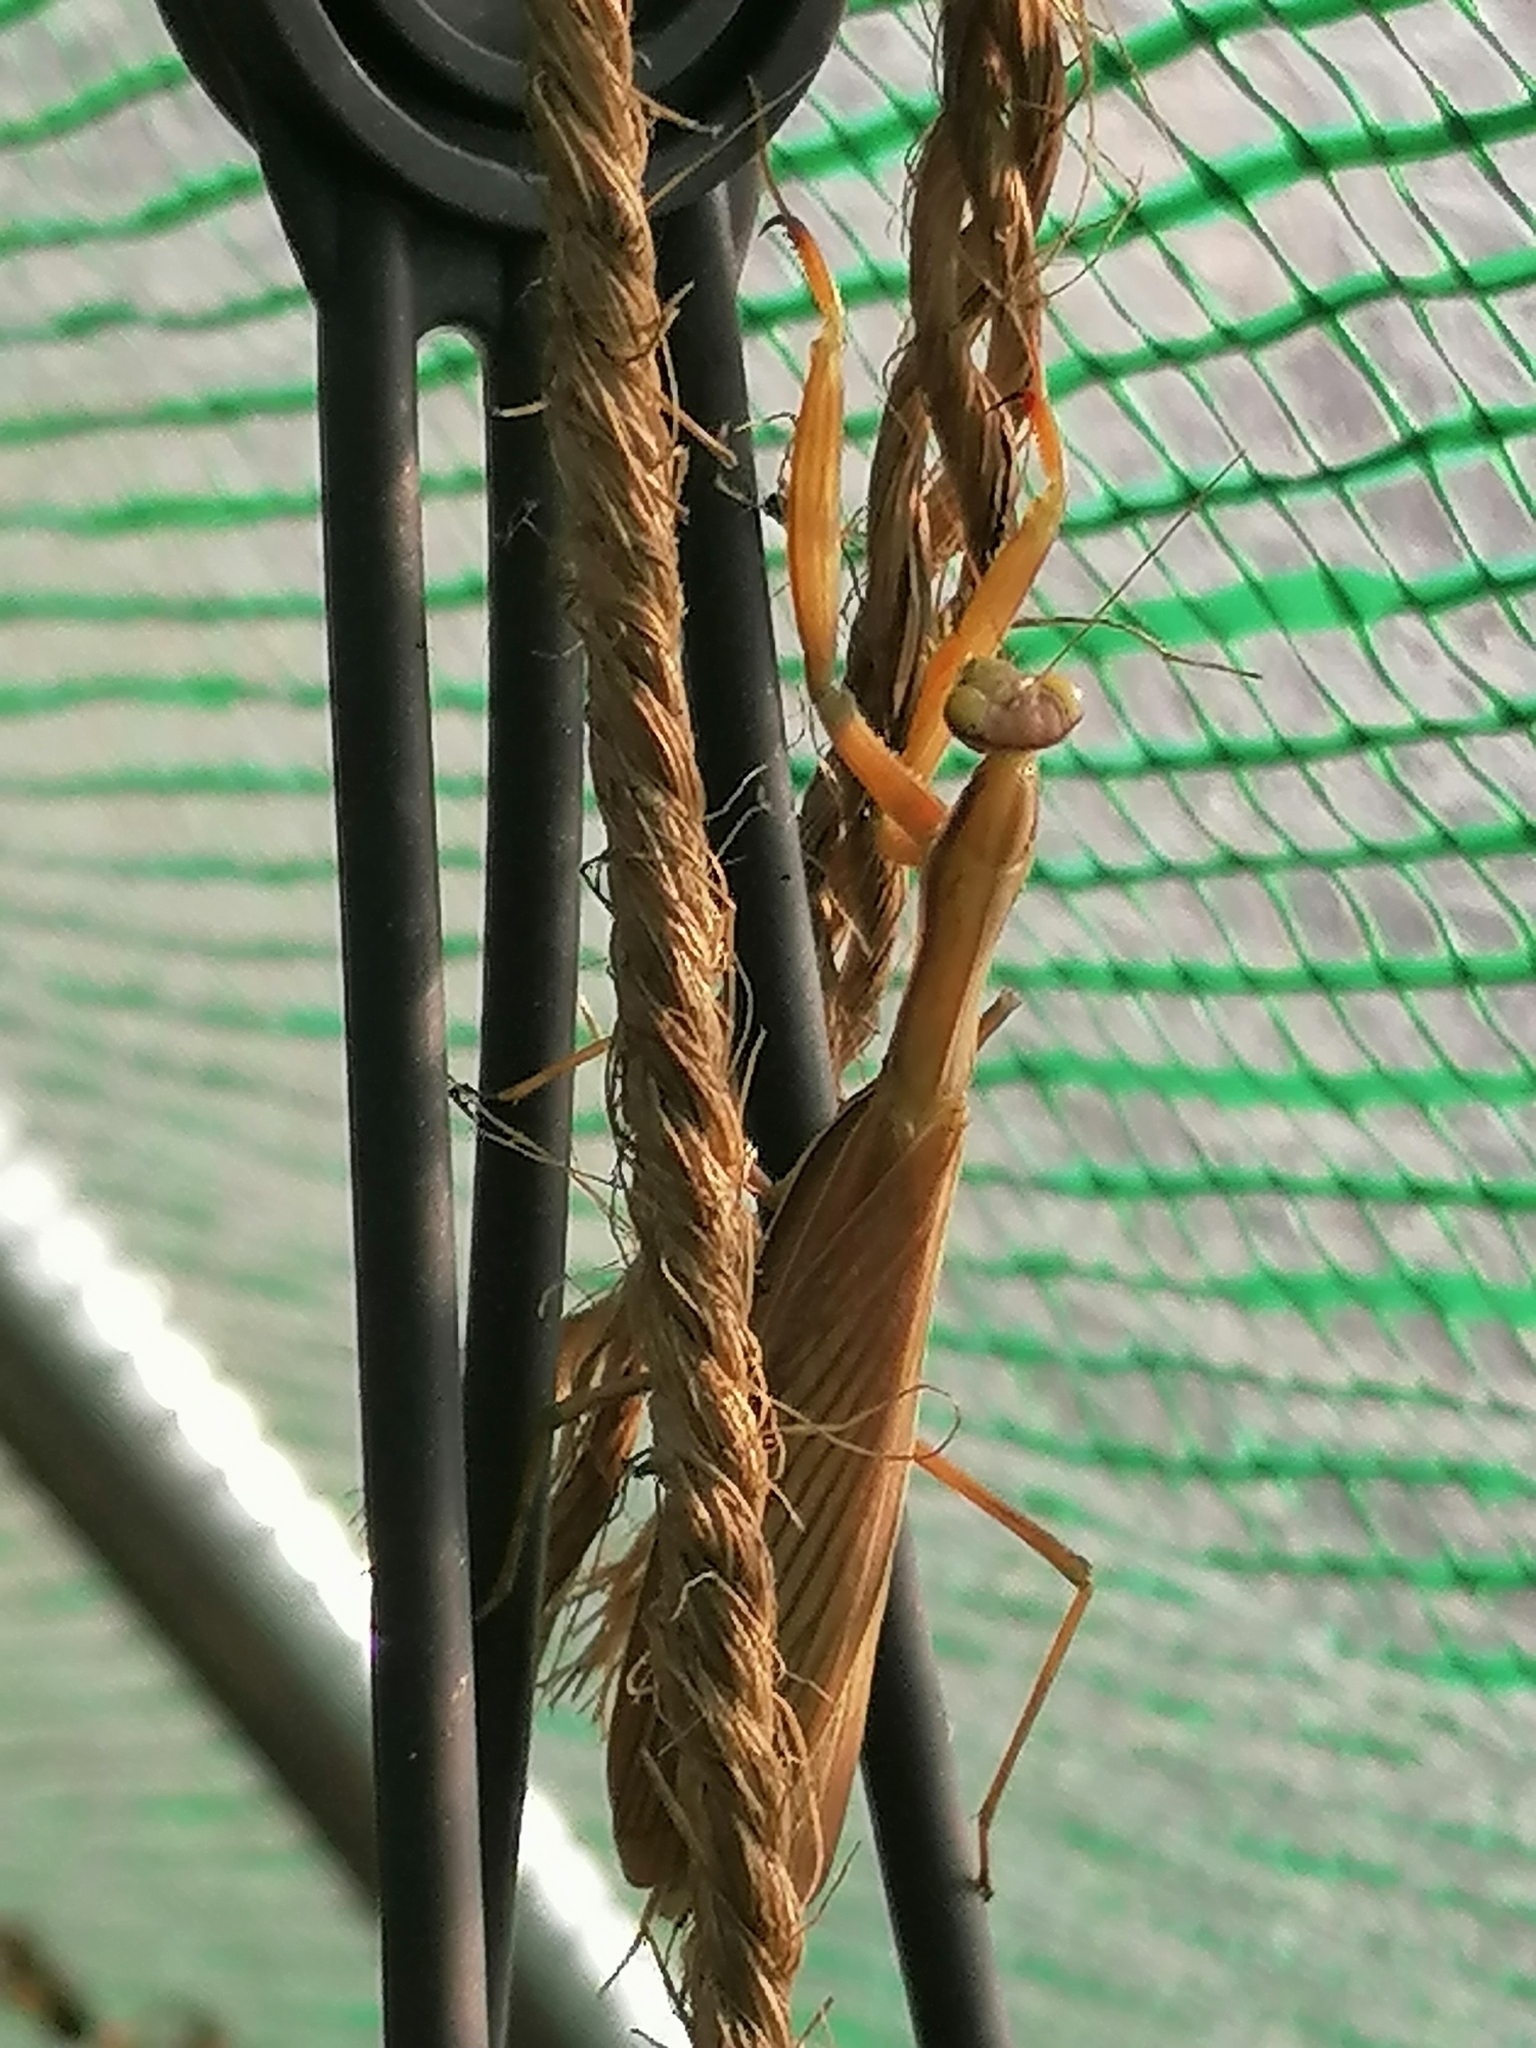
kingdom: Animalia
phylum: Arthropoda
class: Insecta
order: Mantodea
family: Mantidae
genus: Mantis
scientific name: Mantis religiosa
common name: Praying mantis
